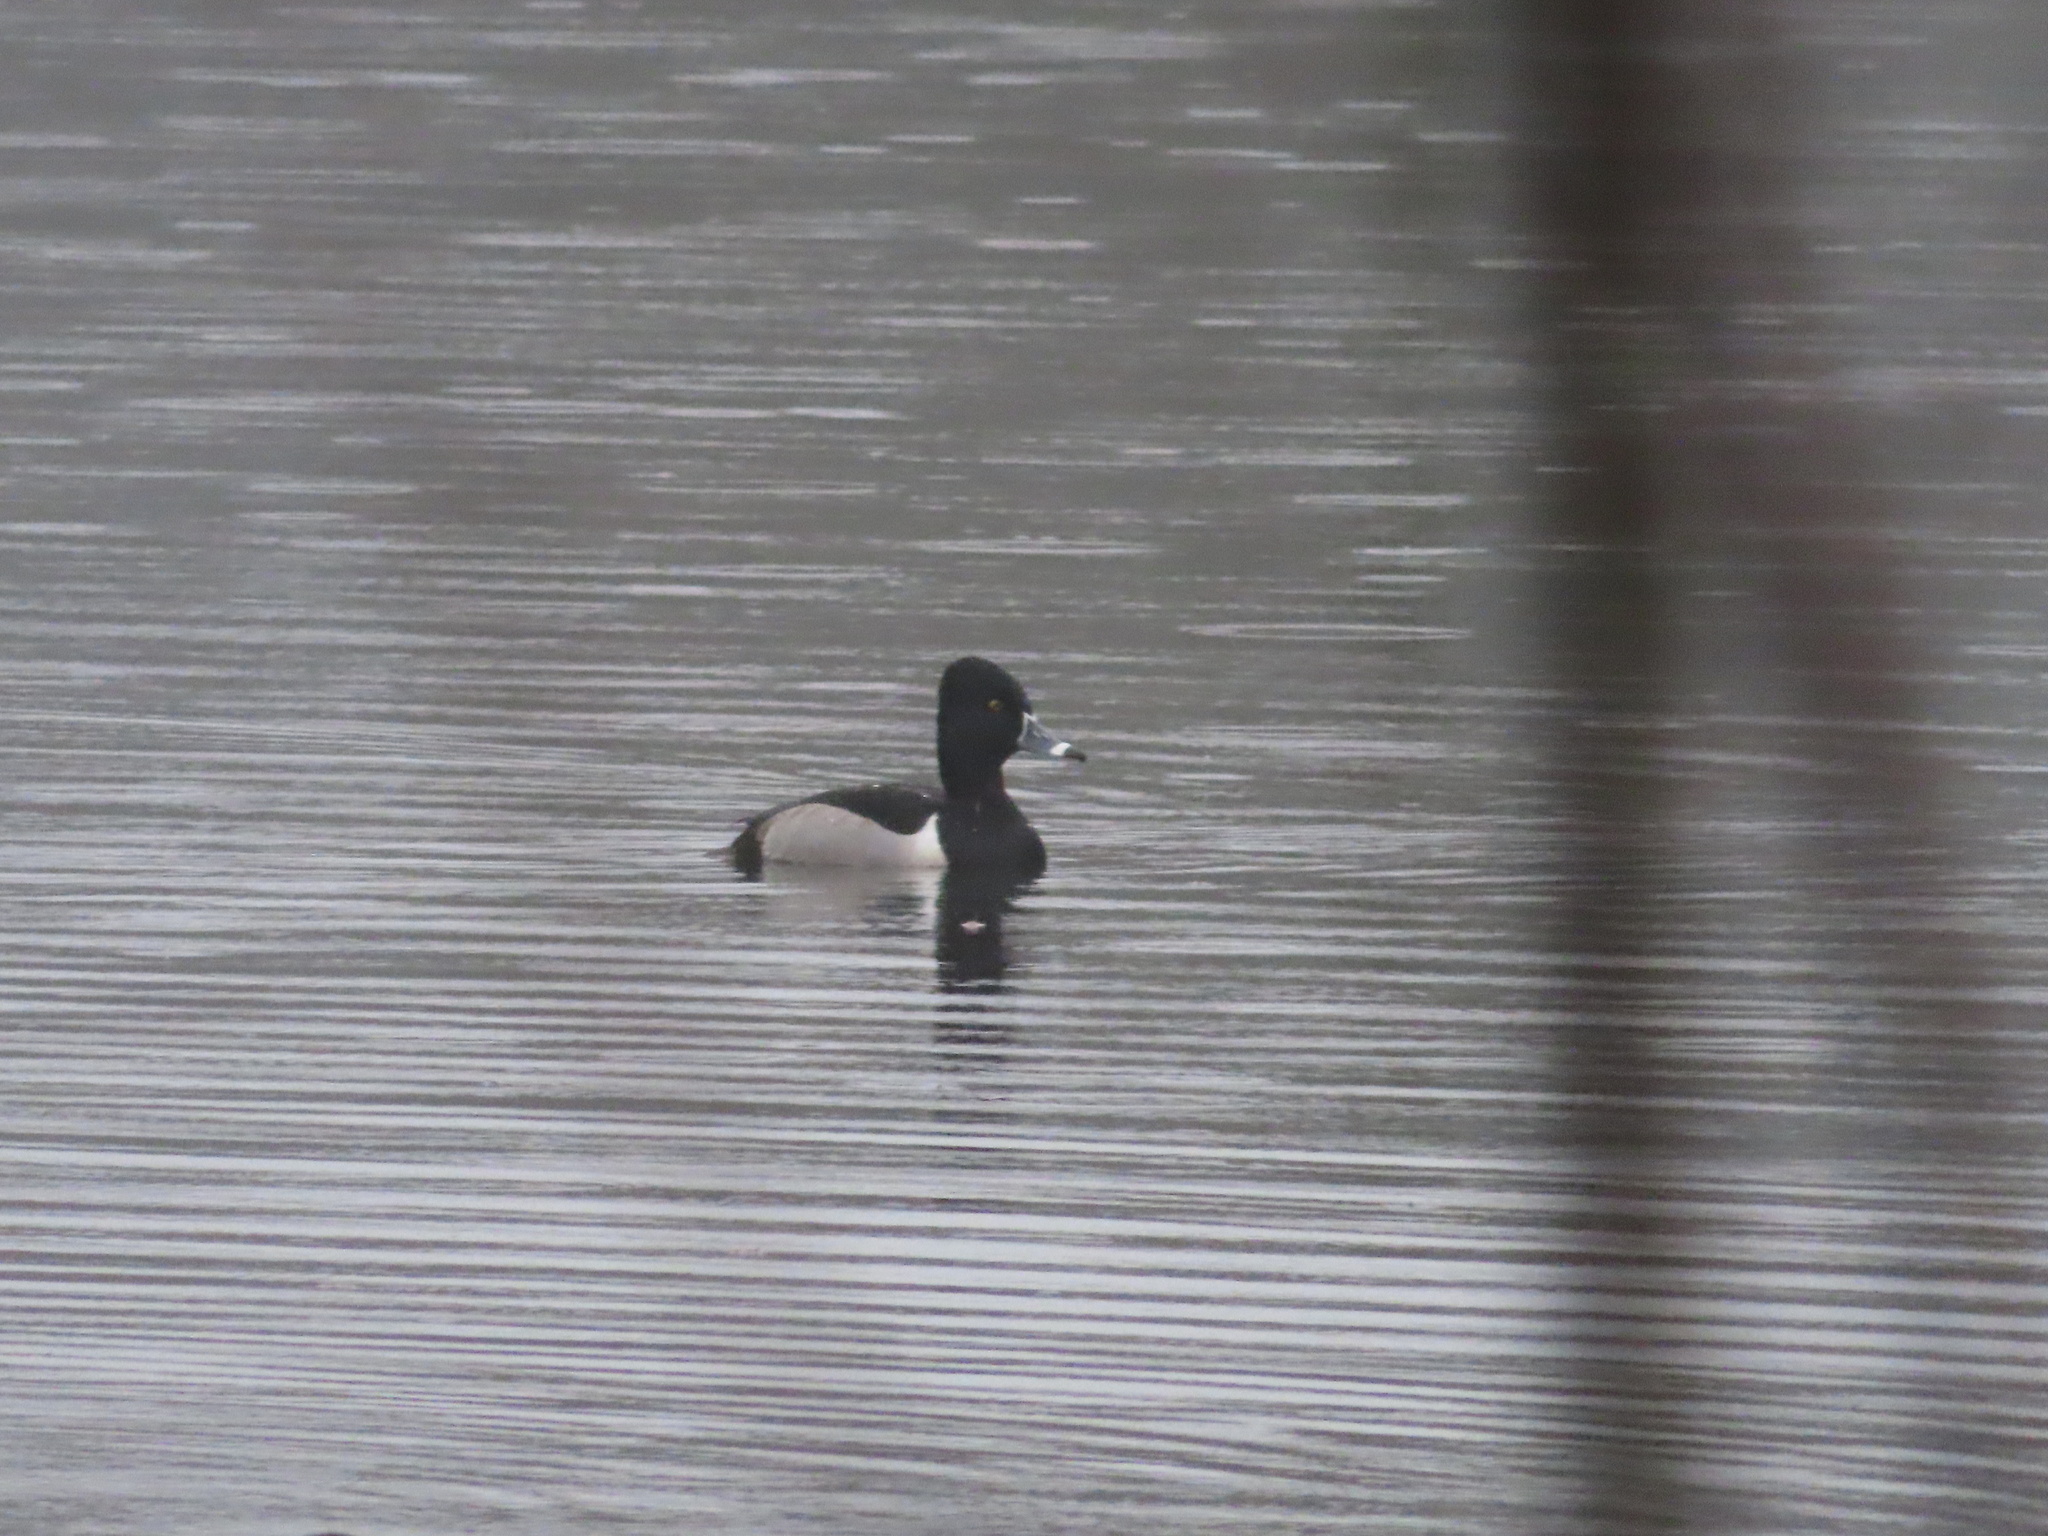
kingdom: Animalia
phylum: Chordata
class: Aves
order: Anseriformes
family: Anatidae
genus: Aythya
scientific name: Aythya collaris
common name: Ring-necked duck
